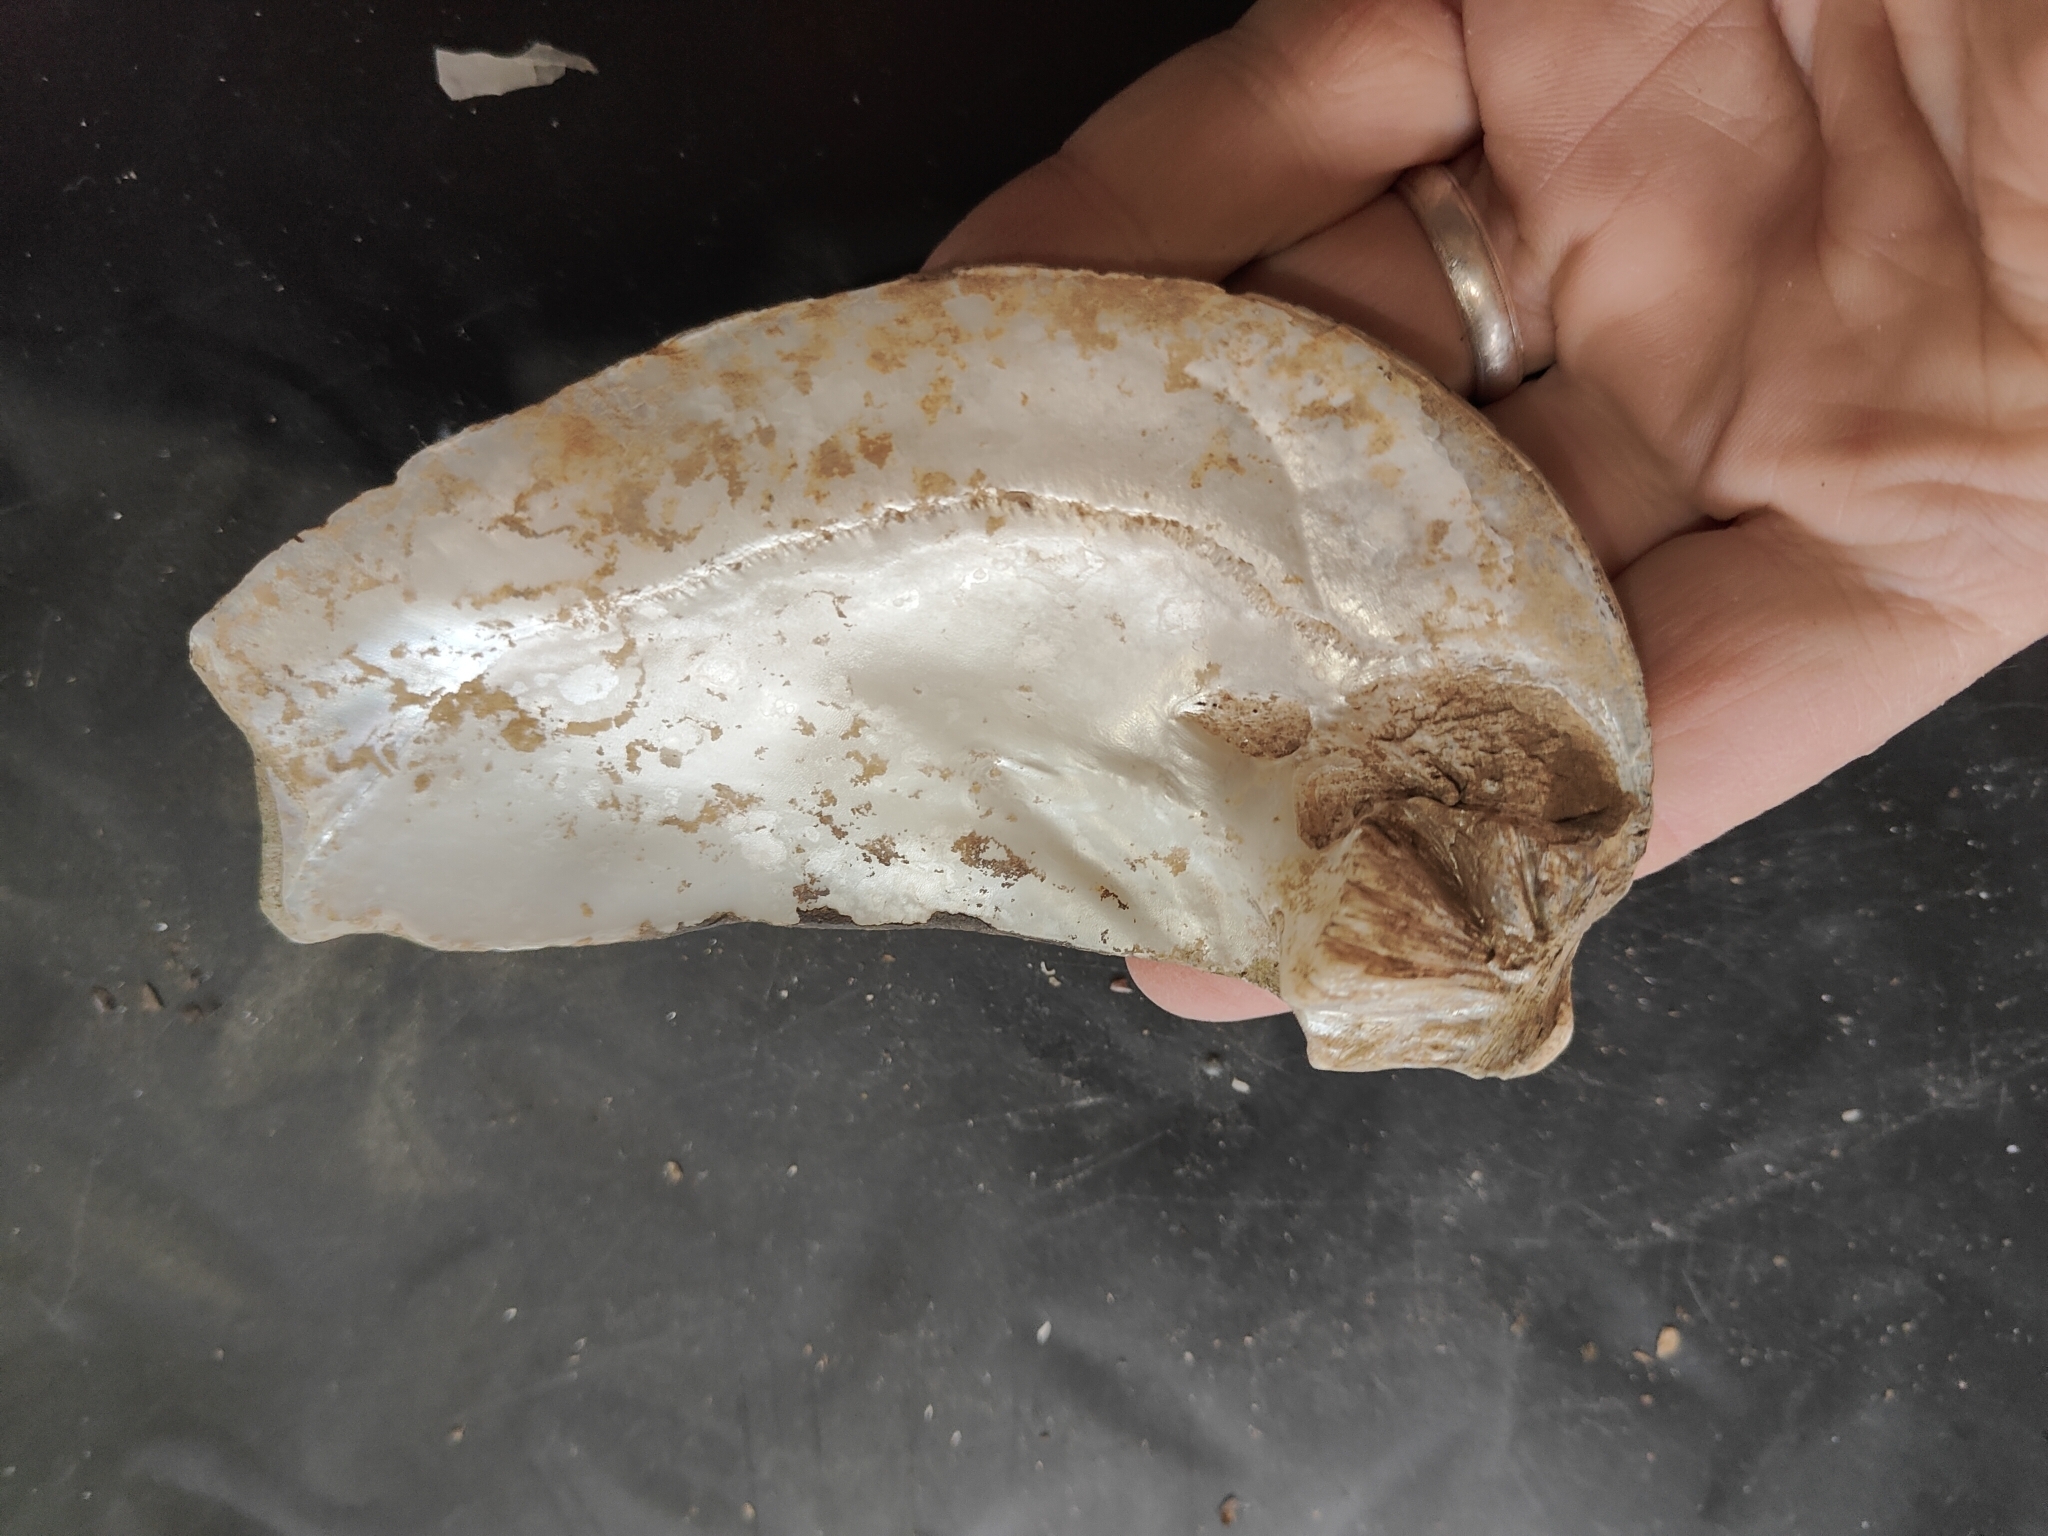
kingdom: Animalia
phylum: Mollusca
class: Bivalvia
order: Unionida
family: Unionidae
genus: Amblema
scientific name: Amblema plicata
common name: Threeridge
